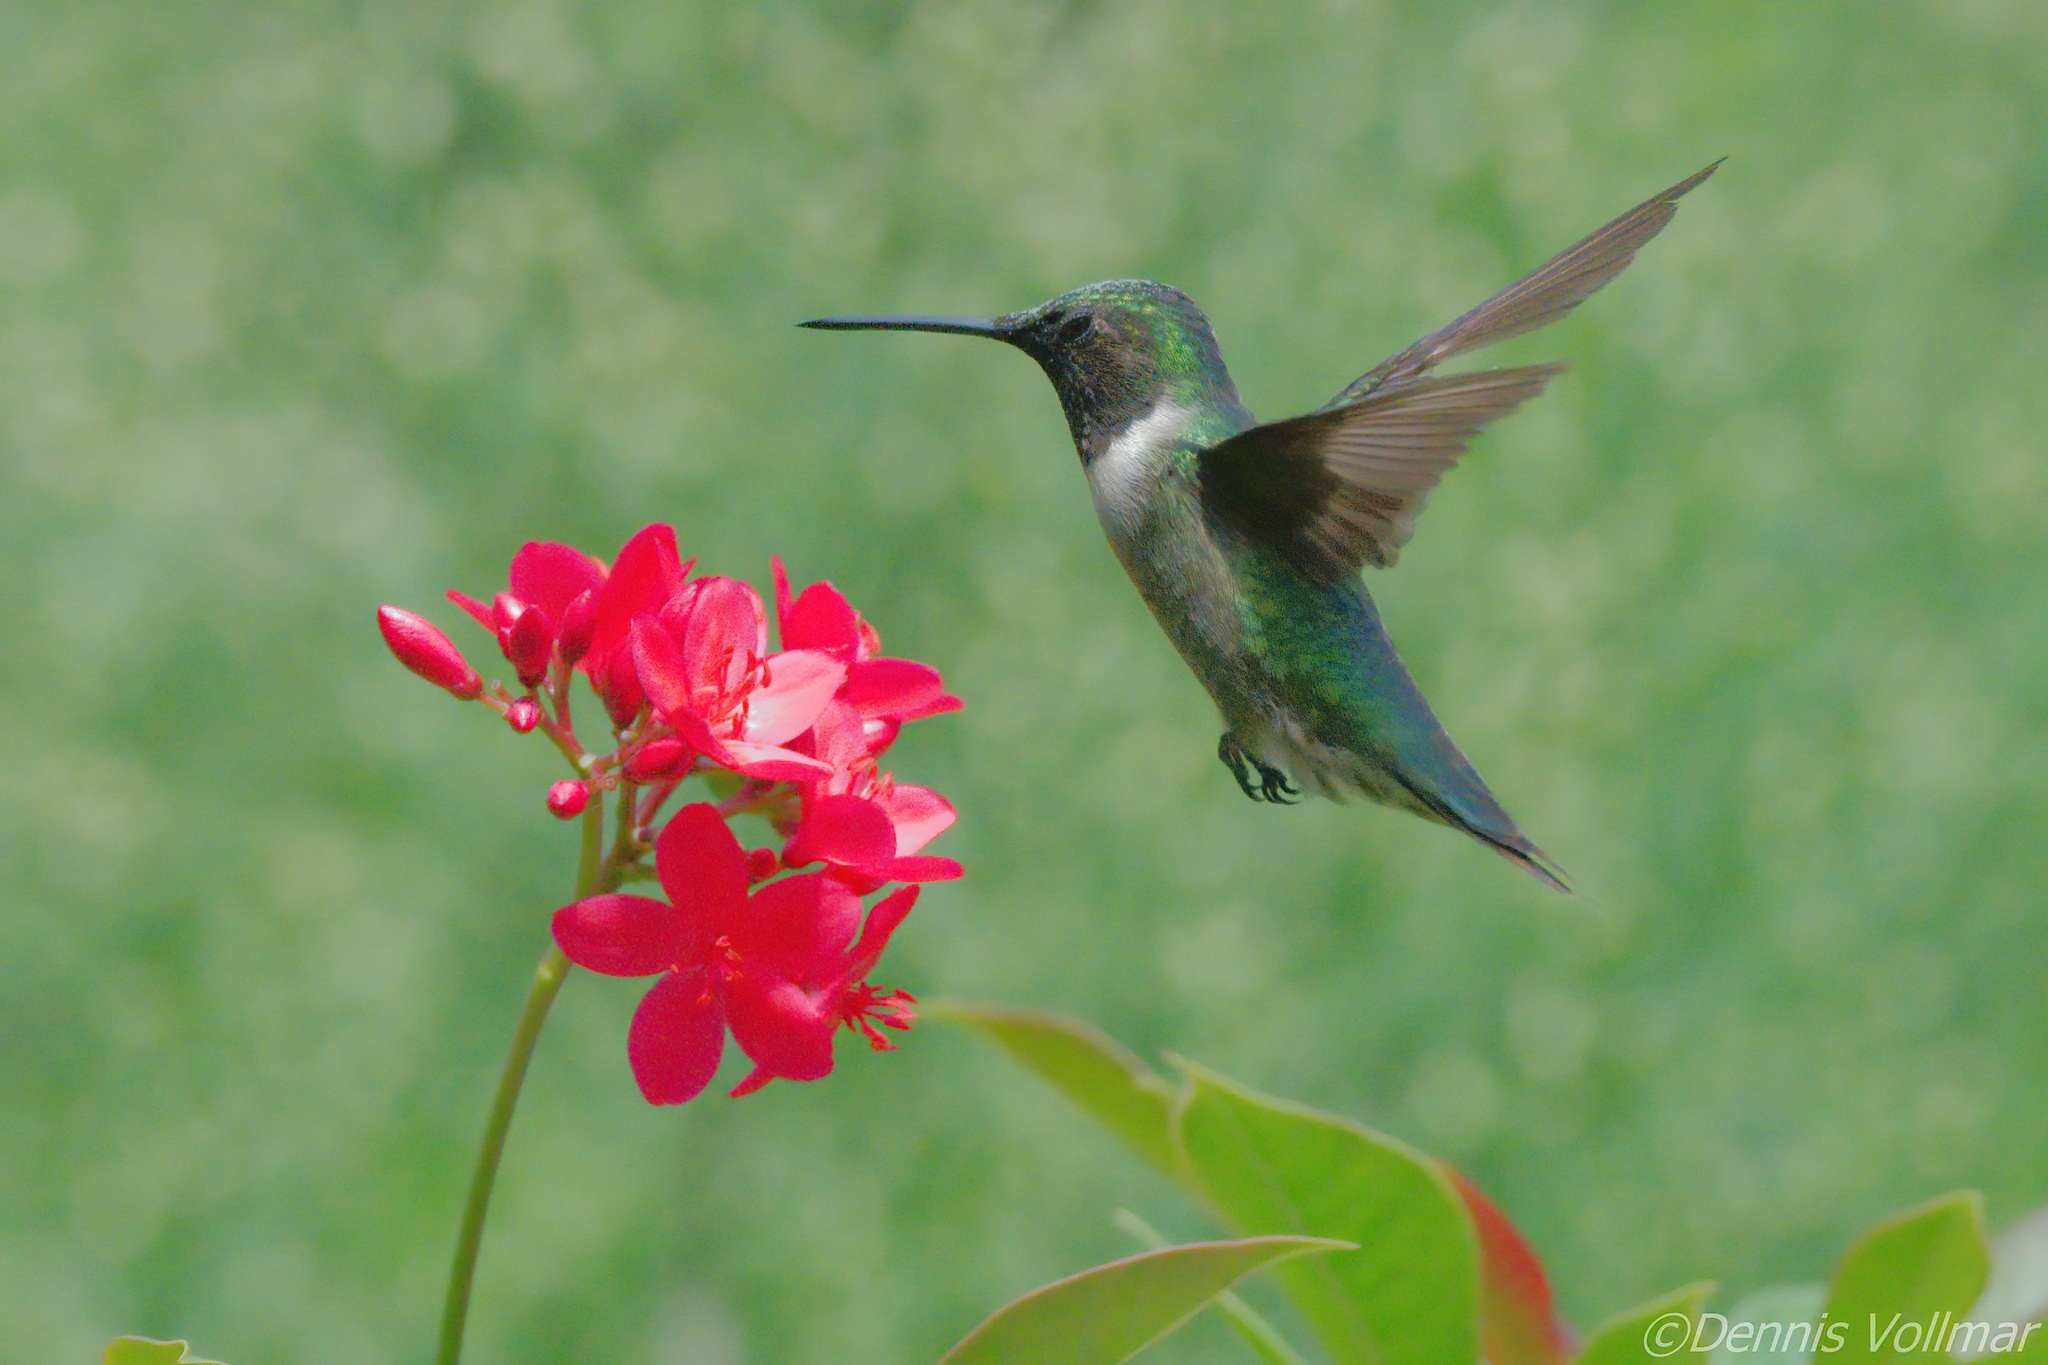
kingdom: Animalia
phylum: Chordata
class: Aves
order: Apodiformes
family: Trochilidae
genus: Archilochus
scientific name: Archilochus colubris
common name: Ruby-throated hummingbird
